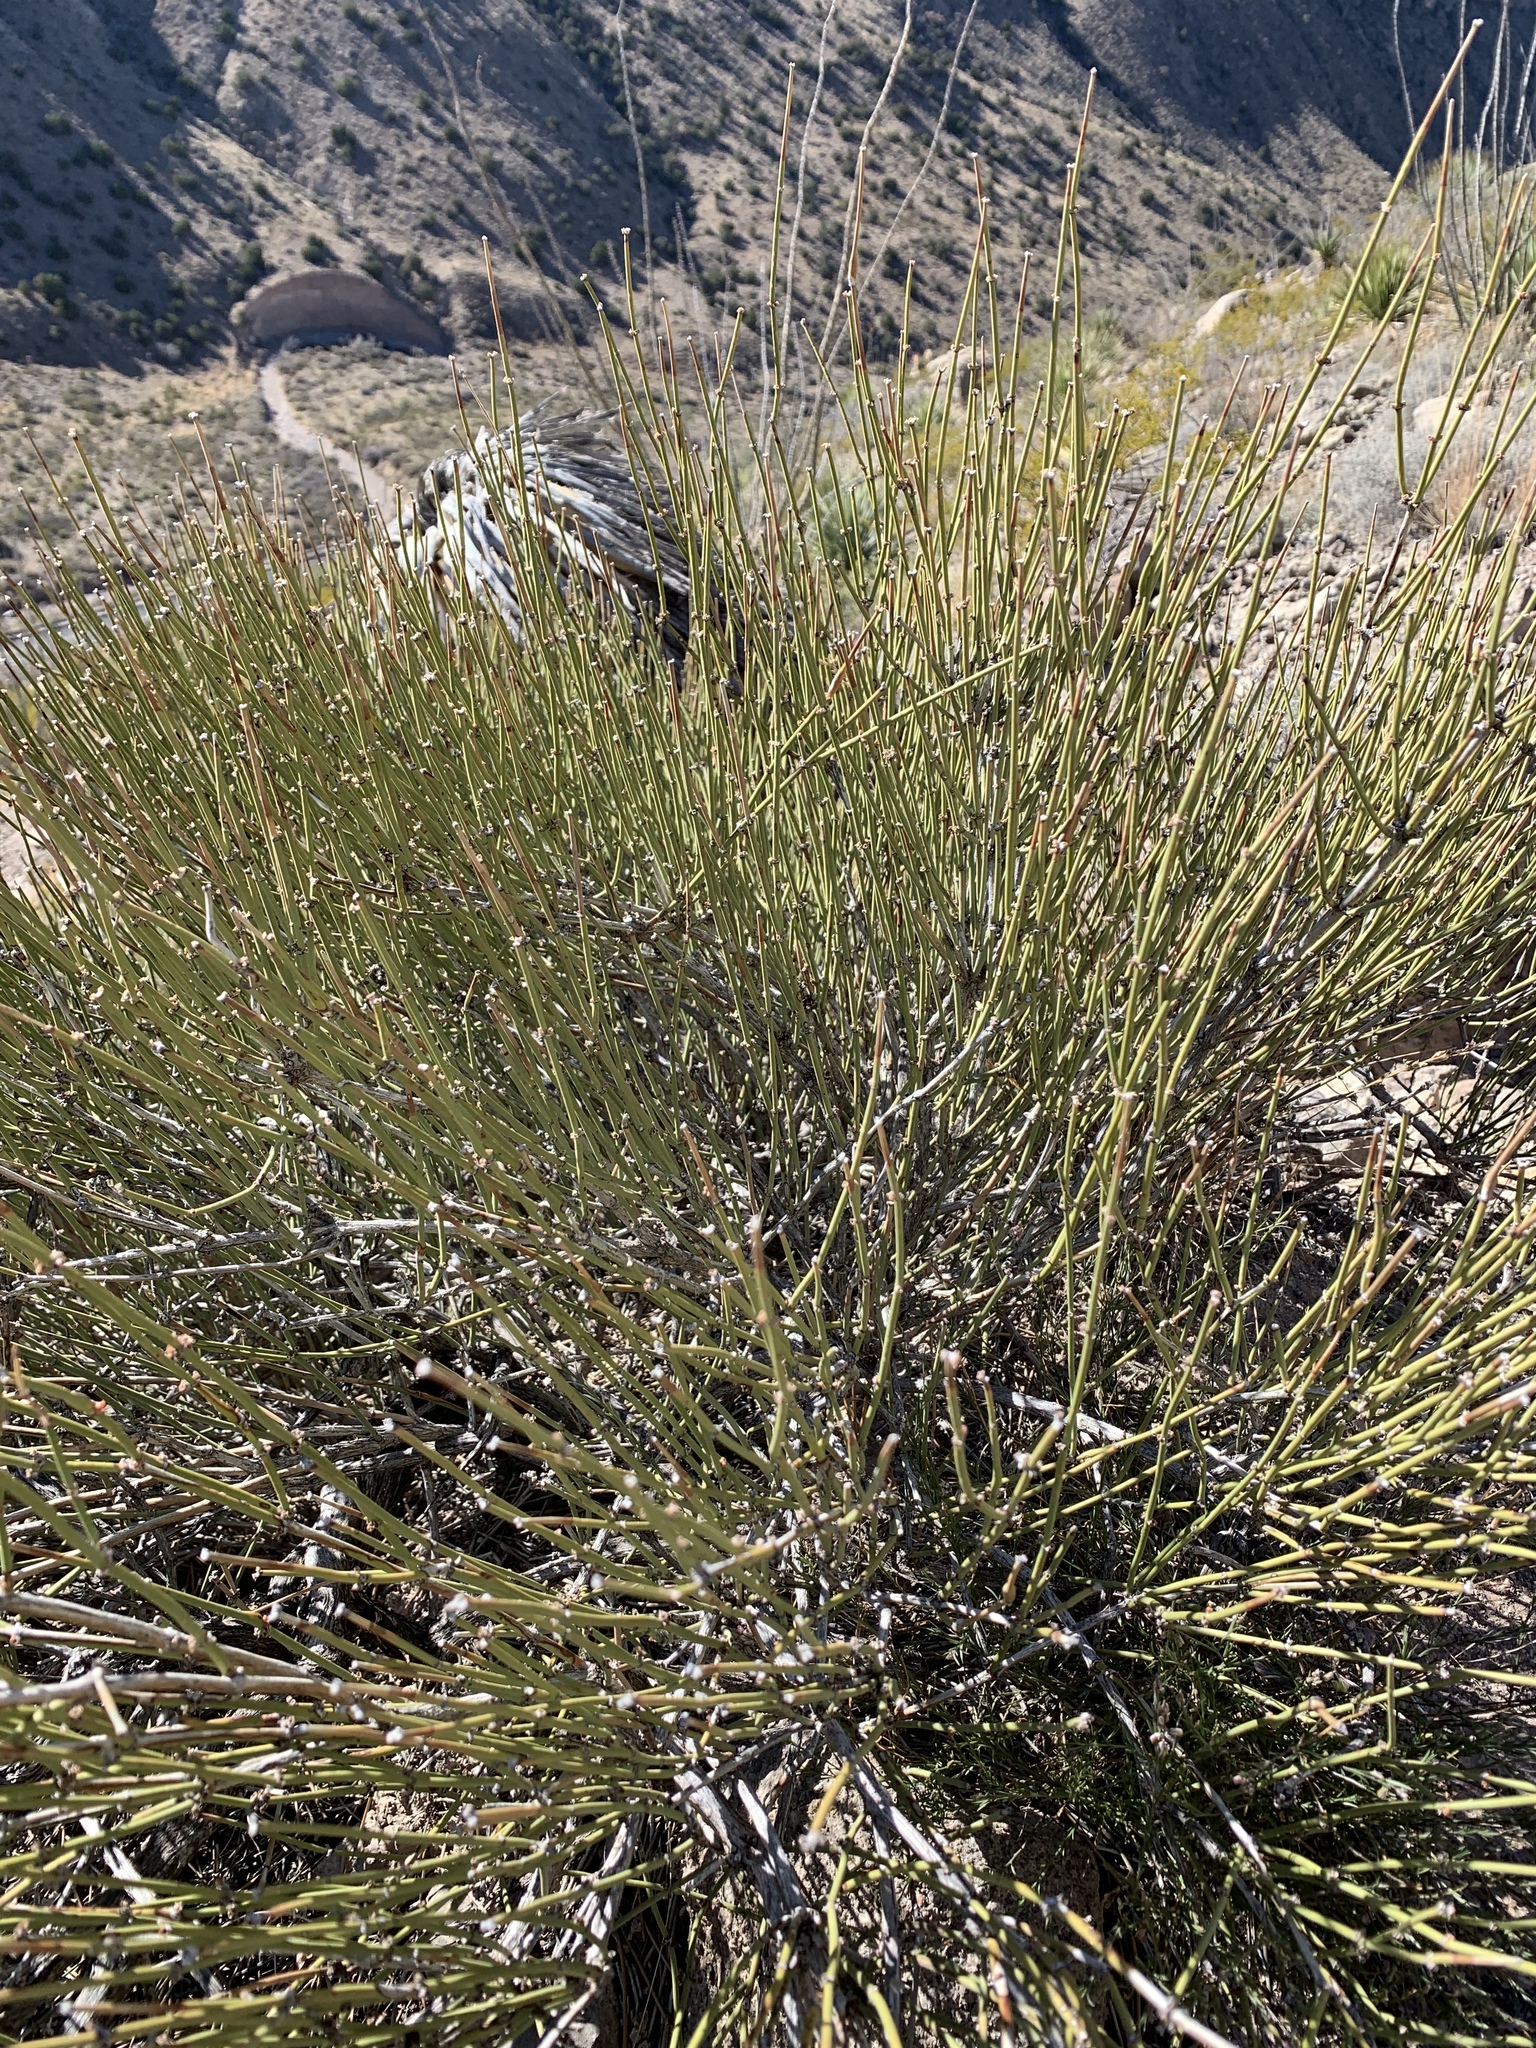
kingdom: Plantae
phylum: Tracheophyta
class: Gnetopsida
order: Ephedrales
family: Ephedraceae
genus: Ephedra
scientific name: Ephedra trifurca
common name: Mexican-tea
